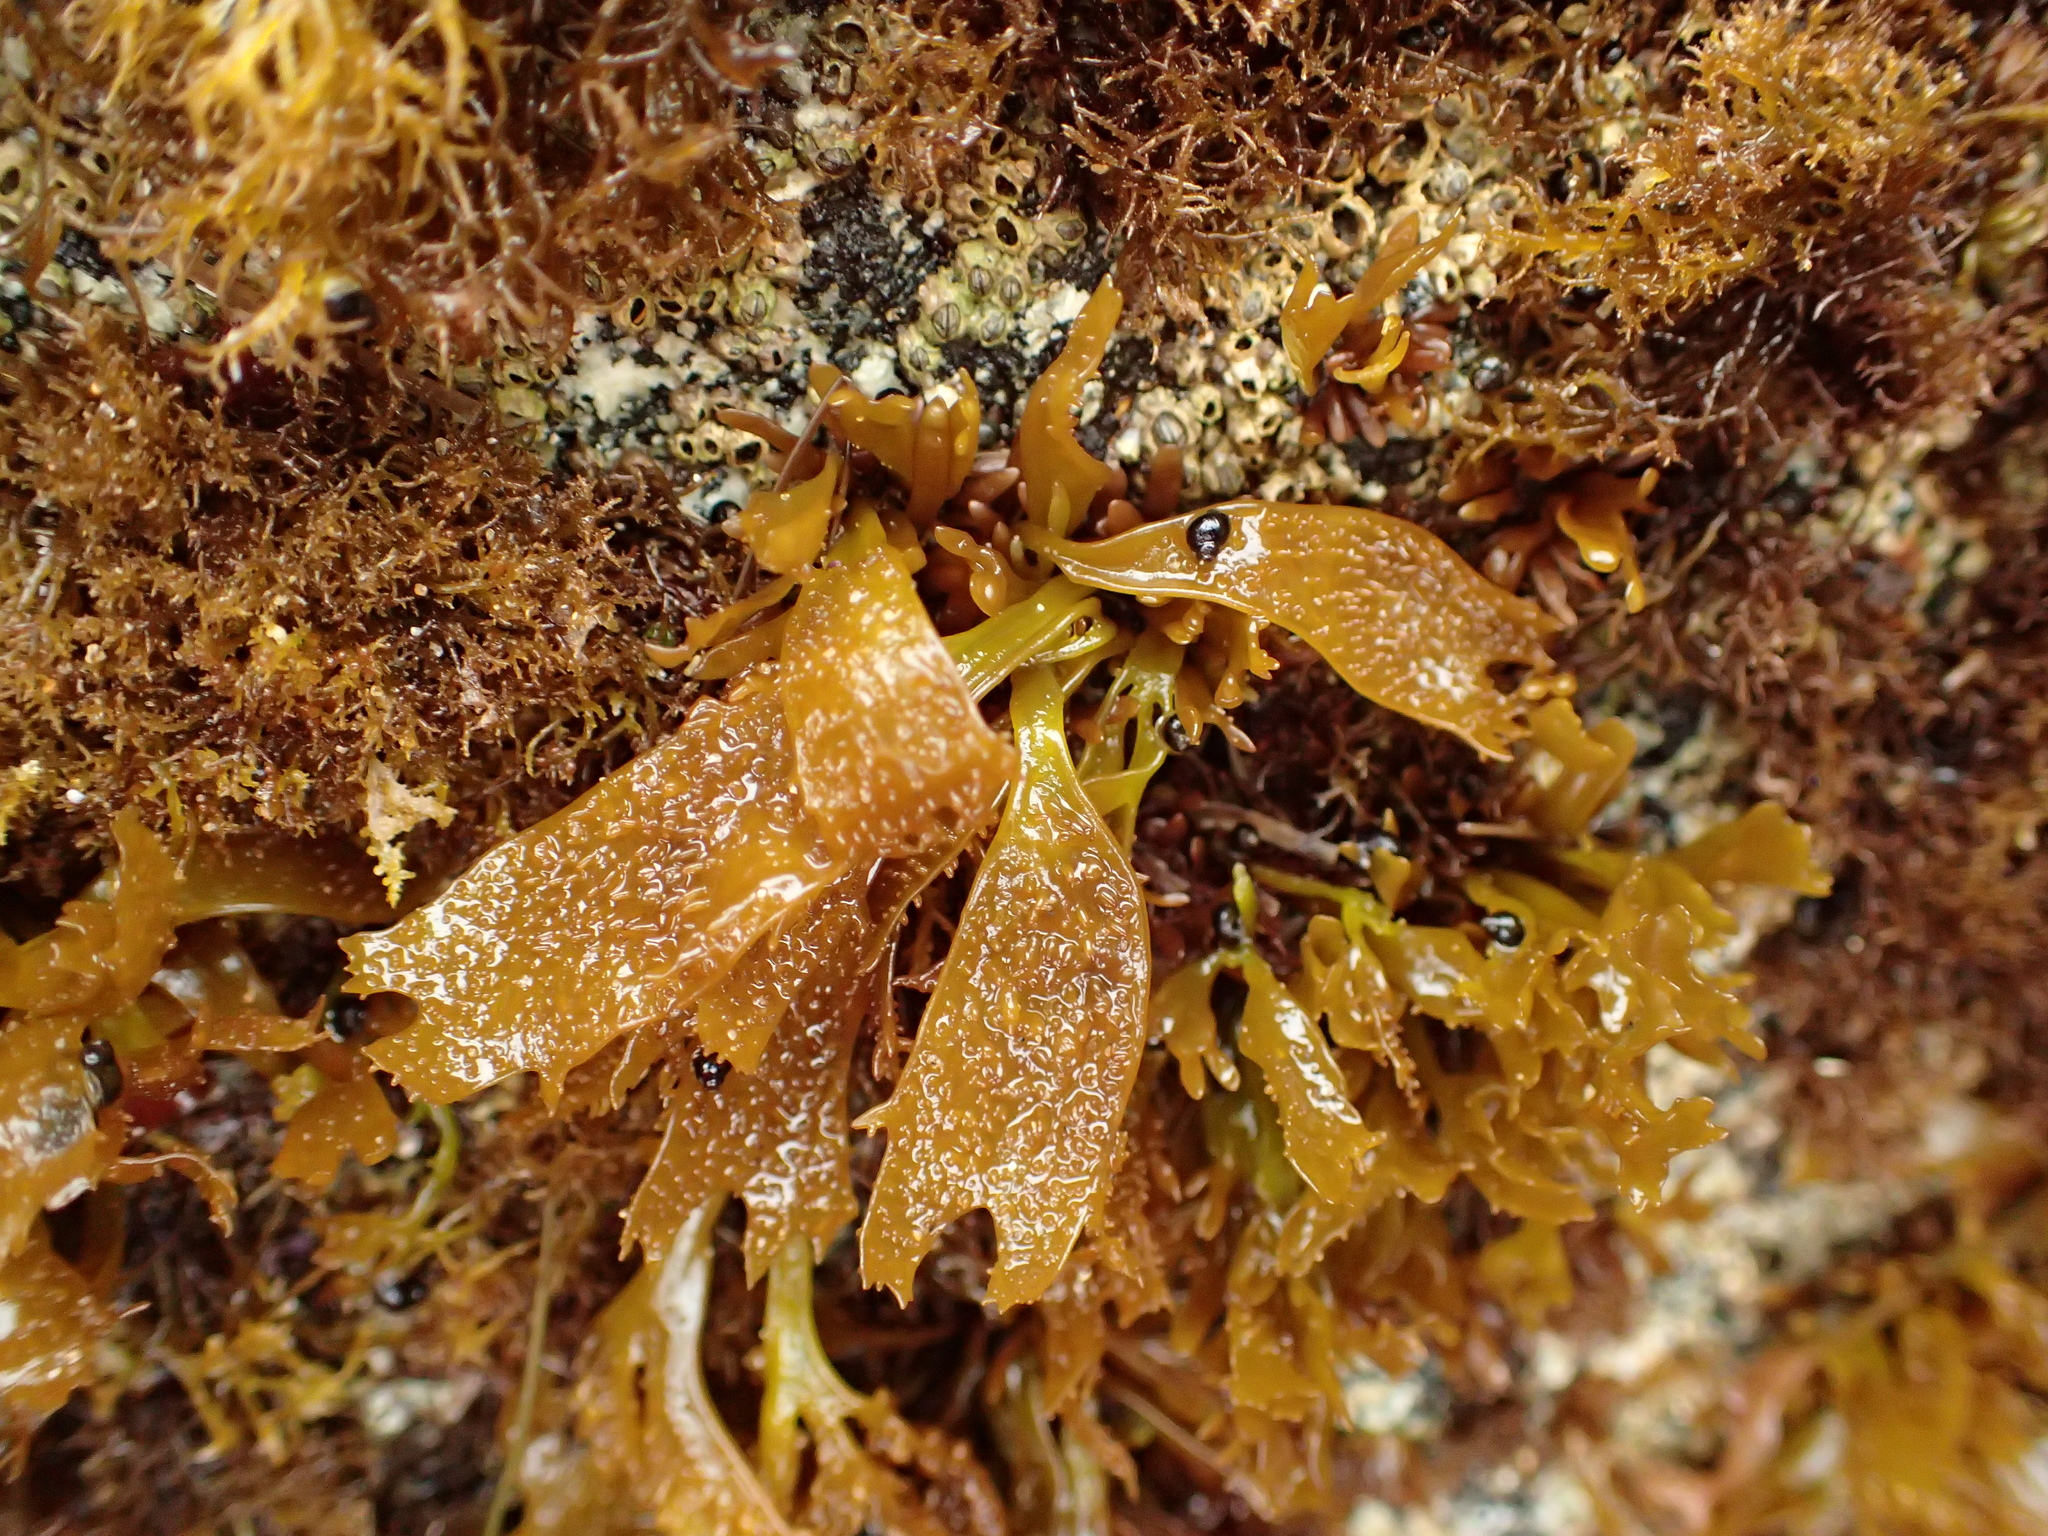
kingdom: Plantae
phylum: Rhodophyta
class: Florideophyceae
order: Gigartinales
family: Phyllophoraceae
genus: Mastocarpus
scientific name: Mastocarpus papillatus
